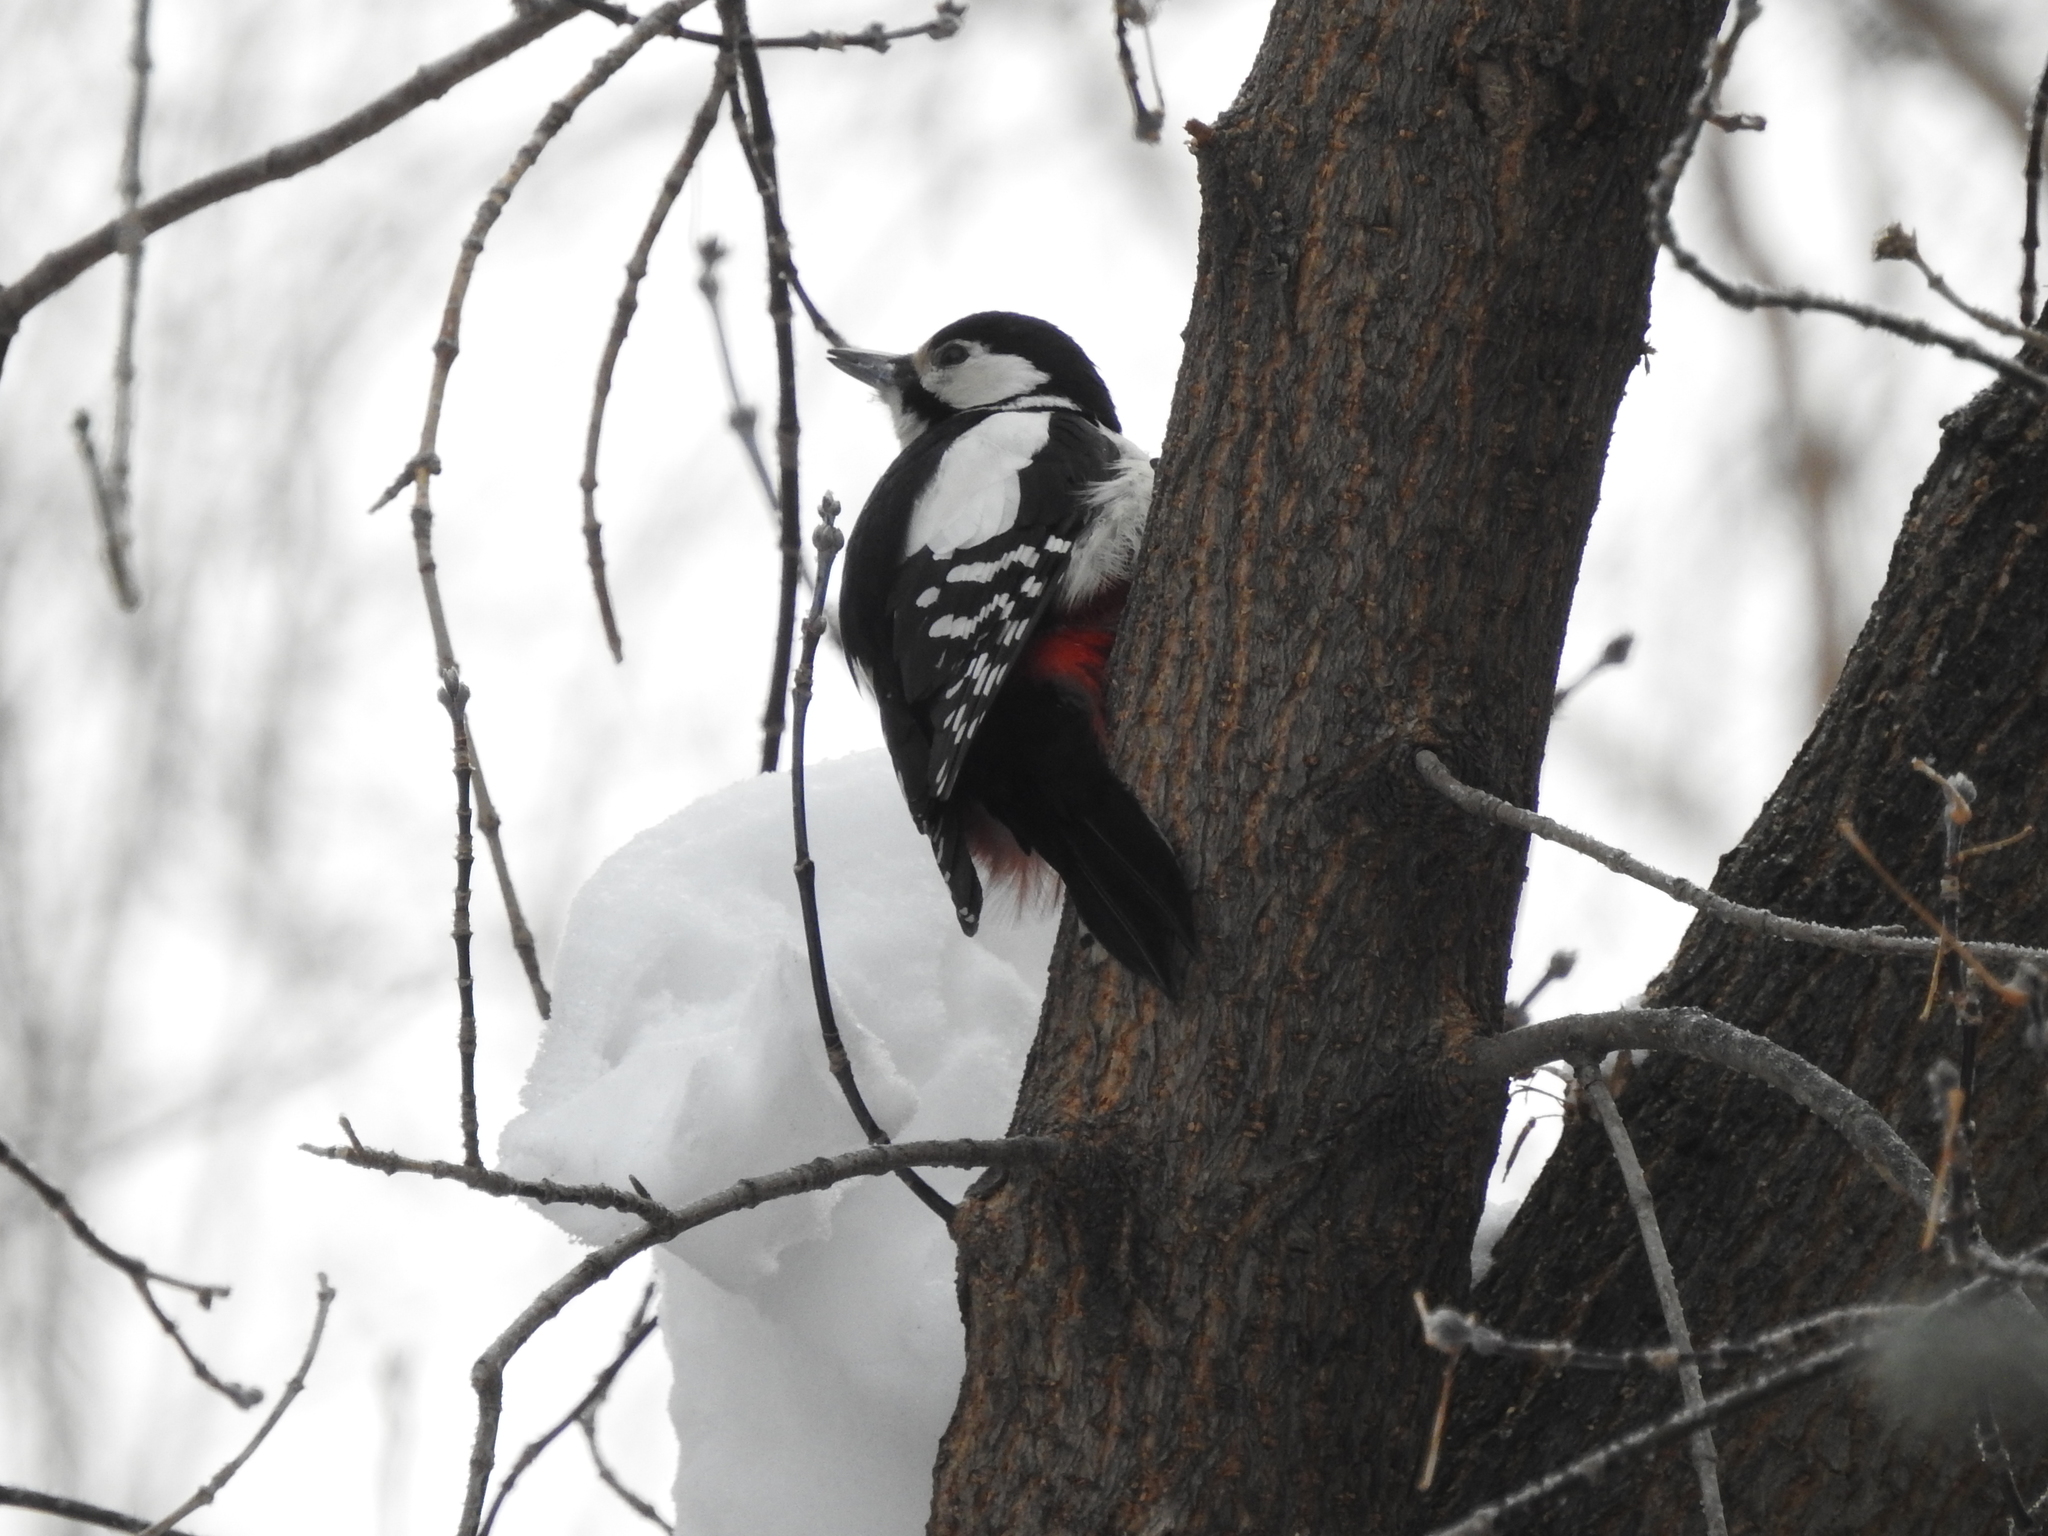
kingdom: Animalia
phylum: Chordata
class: Aves
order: Piciformes
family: Picidae
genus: Dendrocopos
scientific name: Dendrocopos major
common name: Great spotted woodpecker
